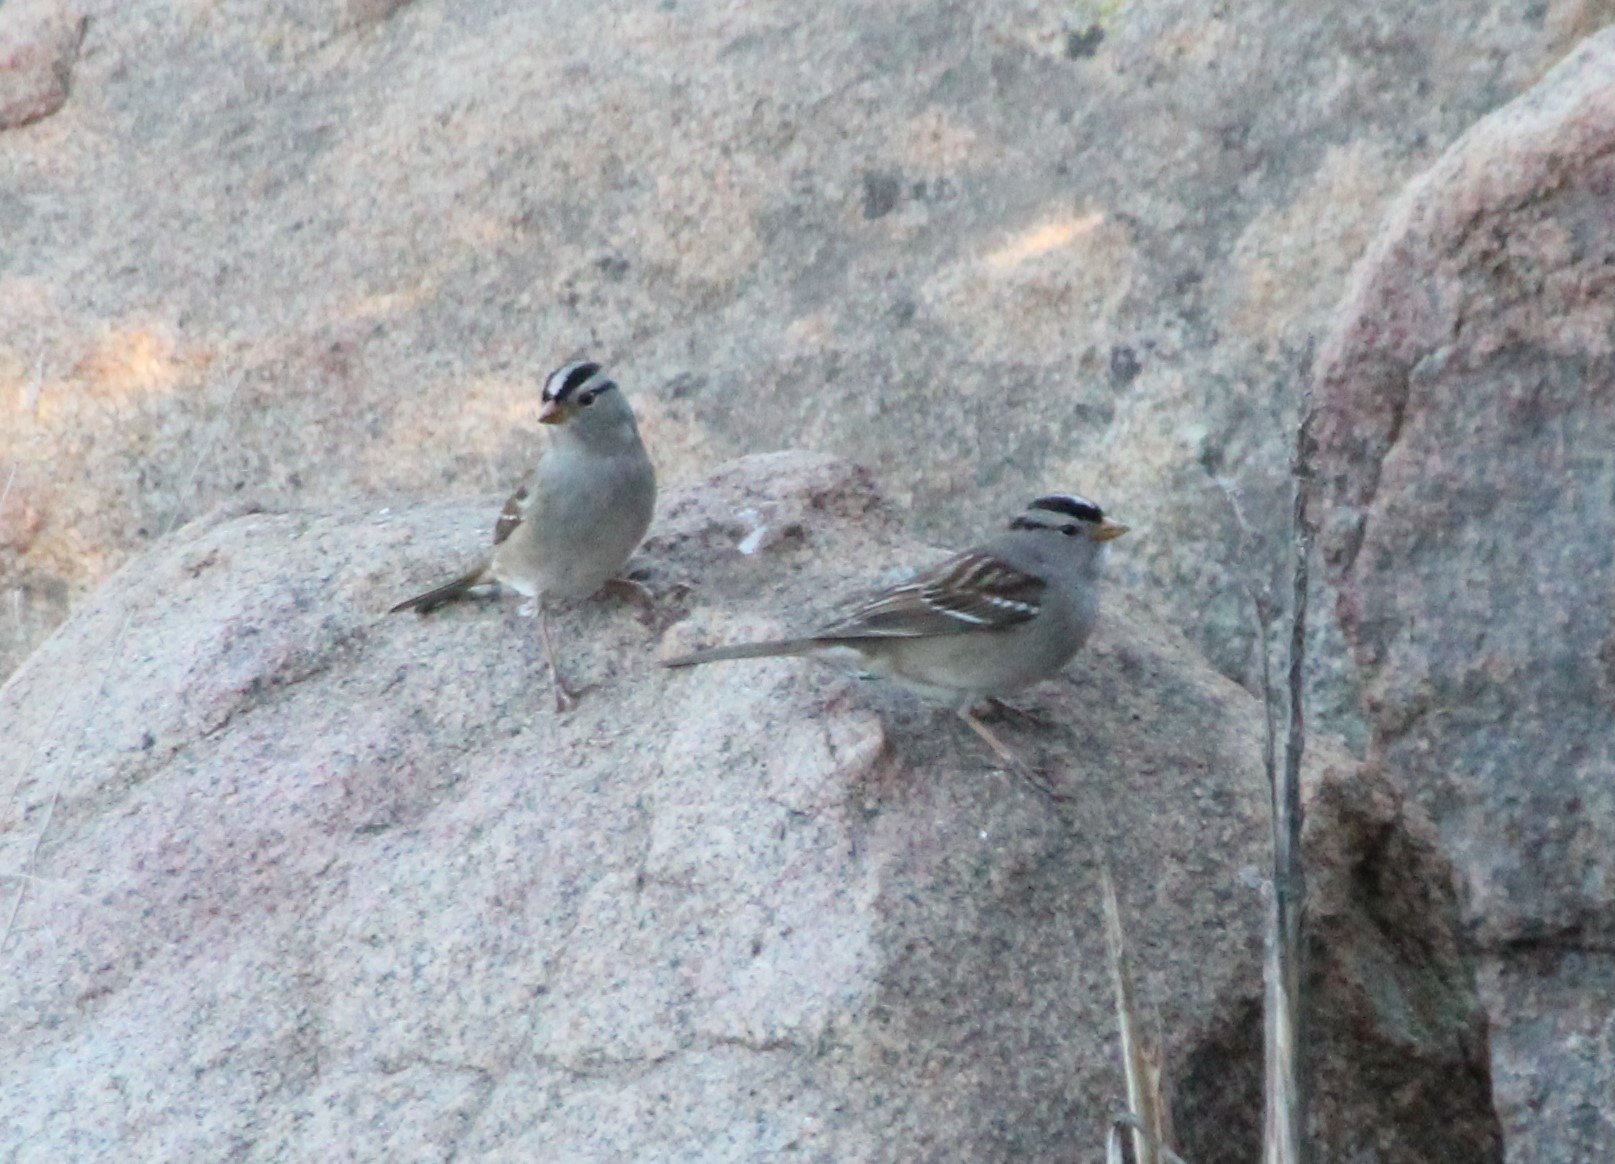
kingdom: Animalia
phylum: Chordata
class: Aves
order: Passeriformes
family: Passerellidae
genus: Zonotrichia
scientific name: Zonotrichia leucophrys
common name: White-crowned sparrow
